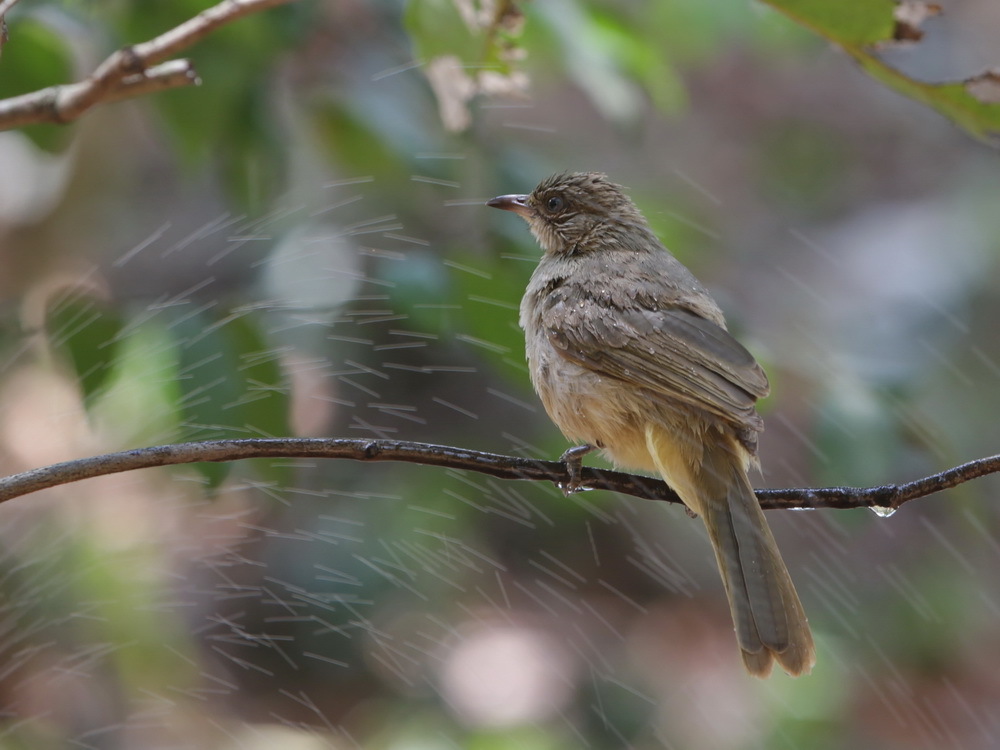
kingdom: Animalia
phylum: Chordata
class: Aves
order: Passeriformes
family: Pycnonotidae
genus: Pycnonotus
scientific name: Pycnonotus blanfordi
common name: Streak-eared bulbul
